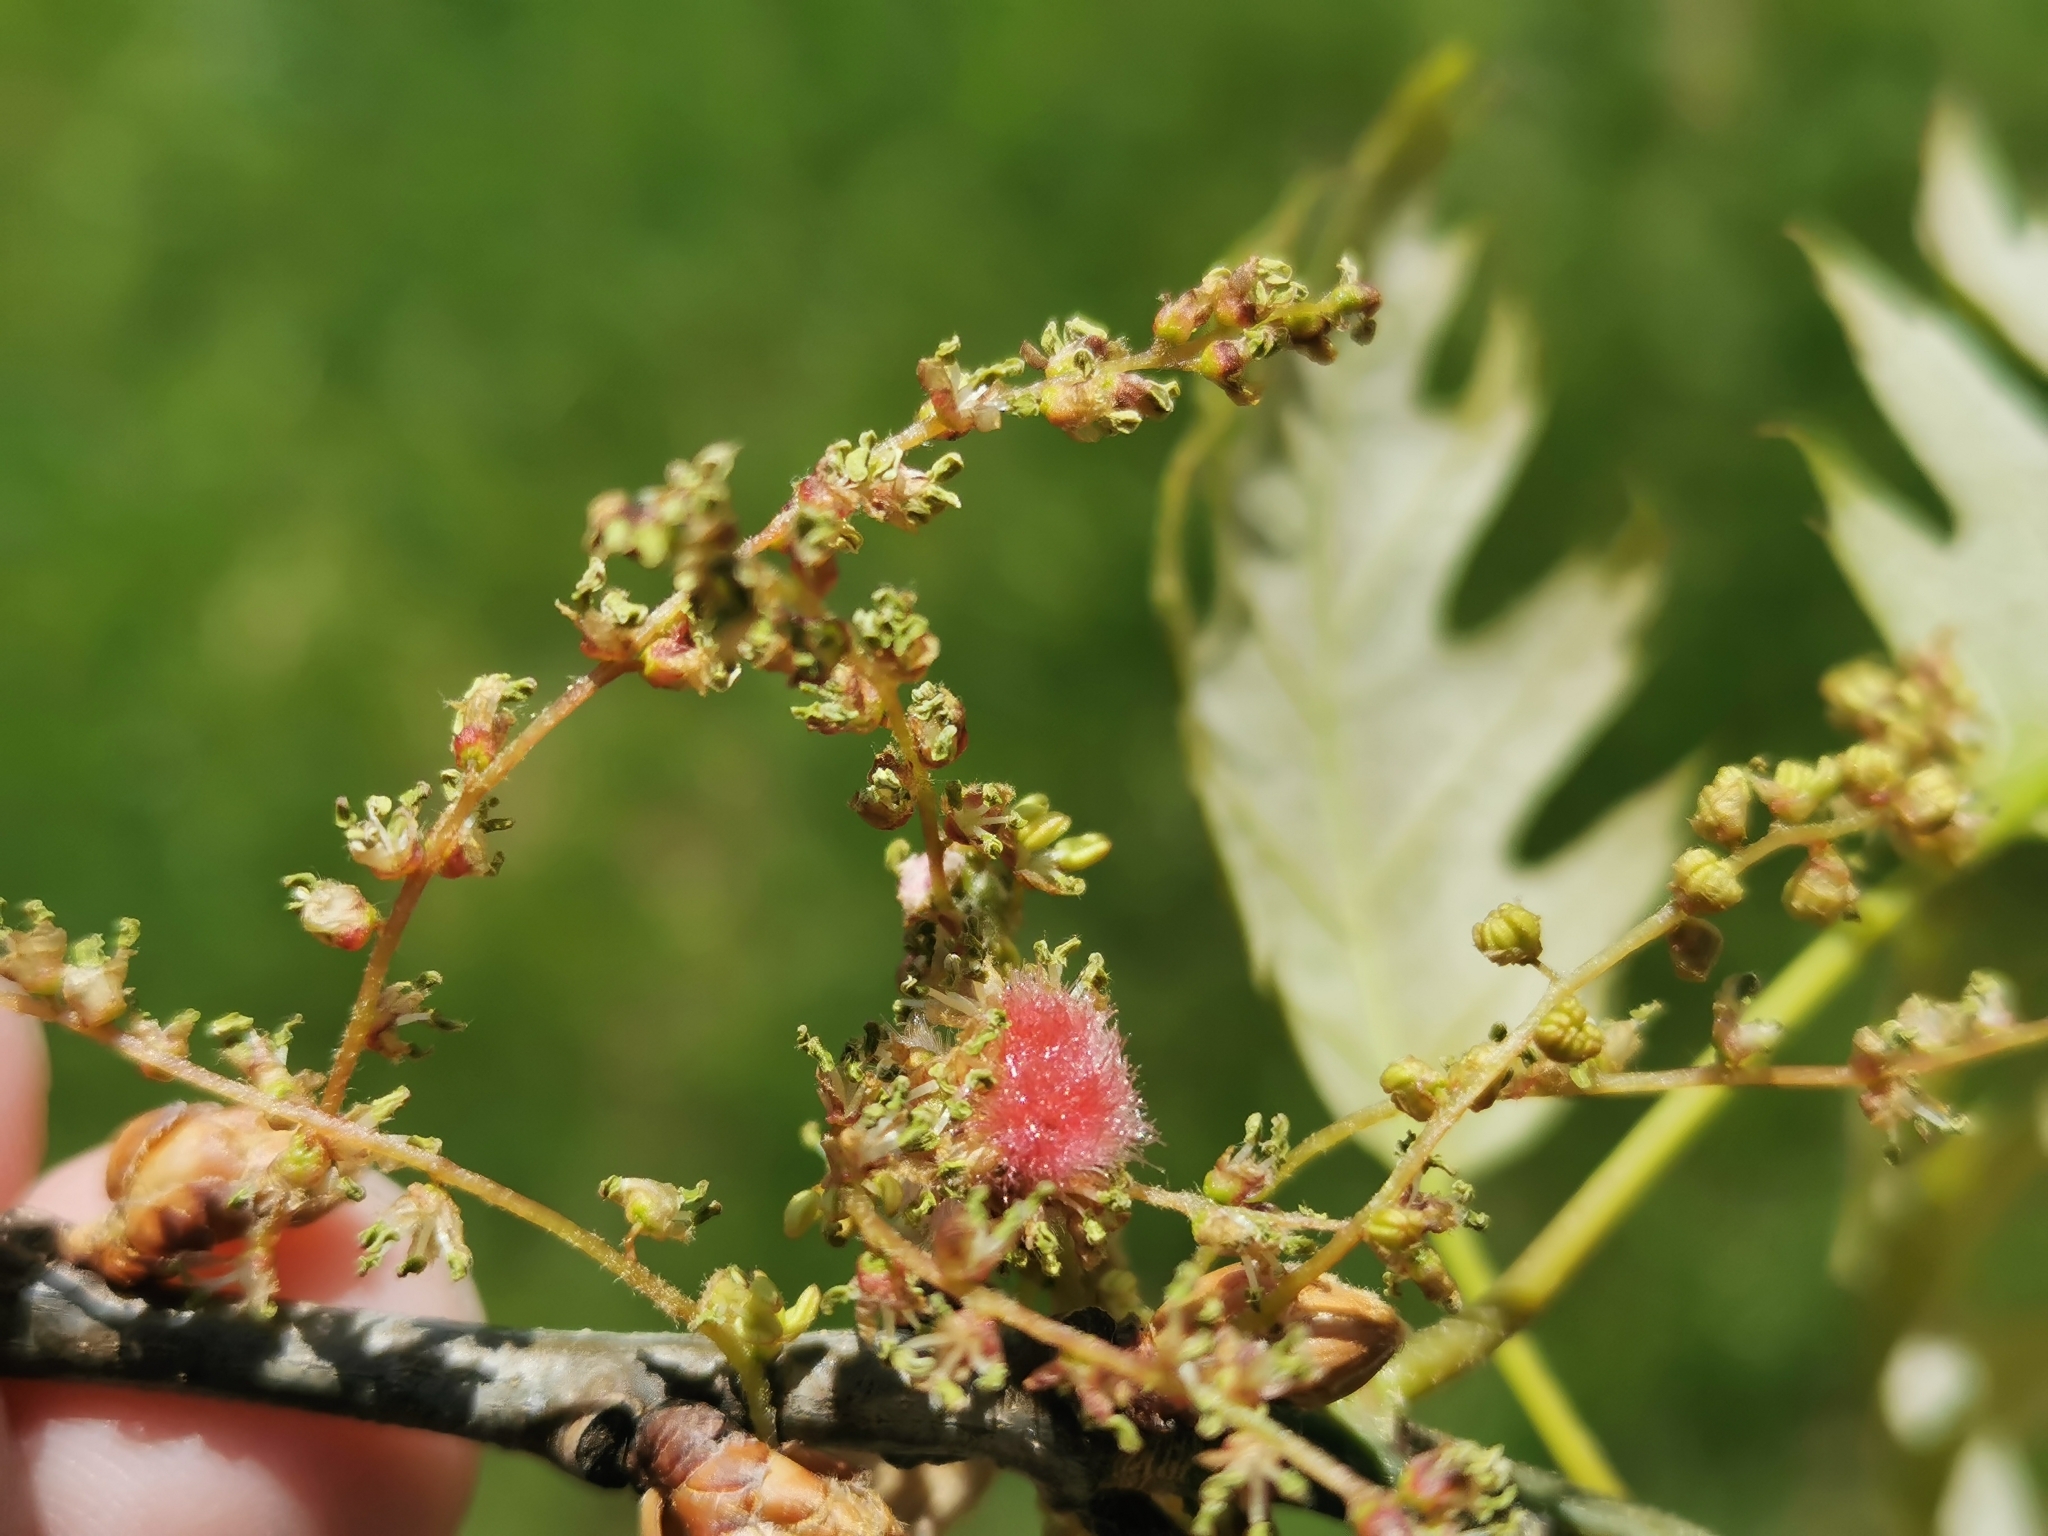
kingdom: Animalia
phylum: Arthropoda
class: Insecta
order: Hymenoptera
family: Cynipidae
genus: Callirhytis
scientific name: Callirhytis
